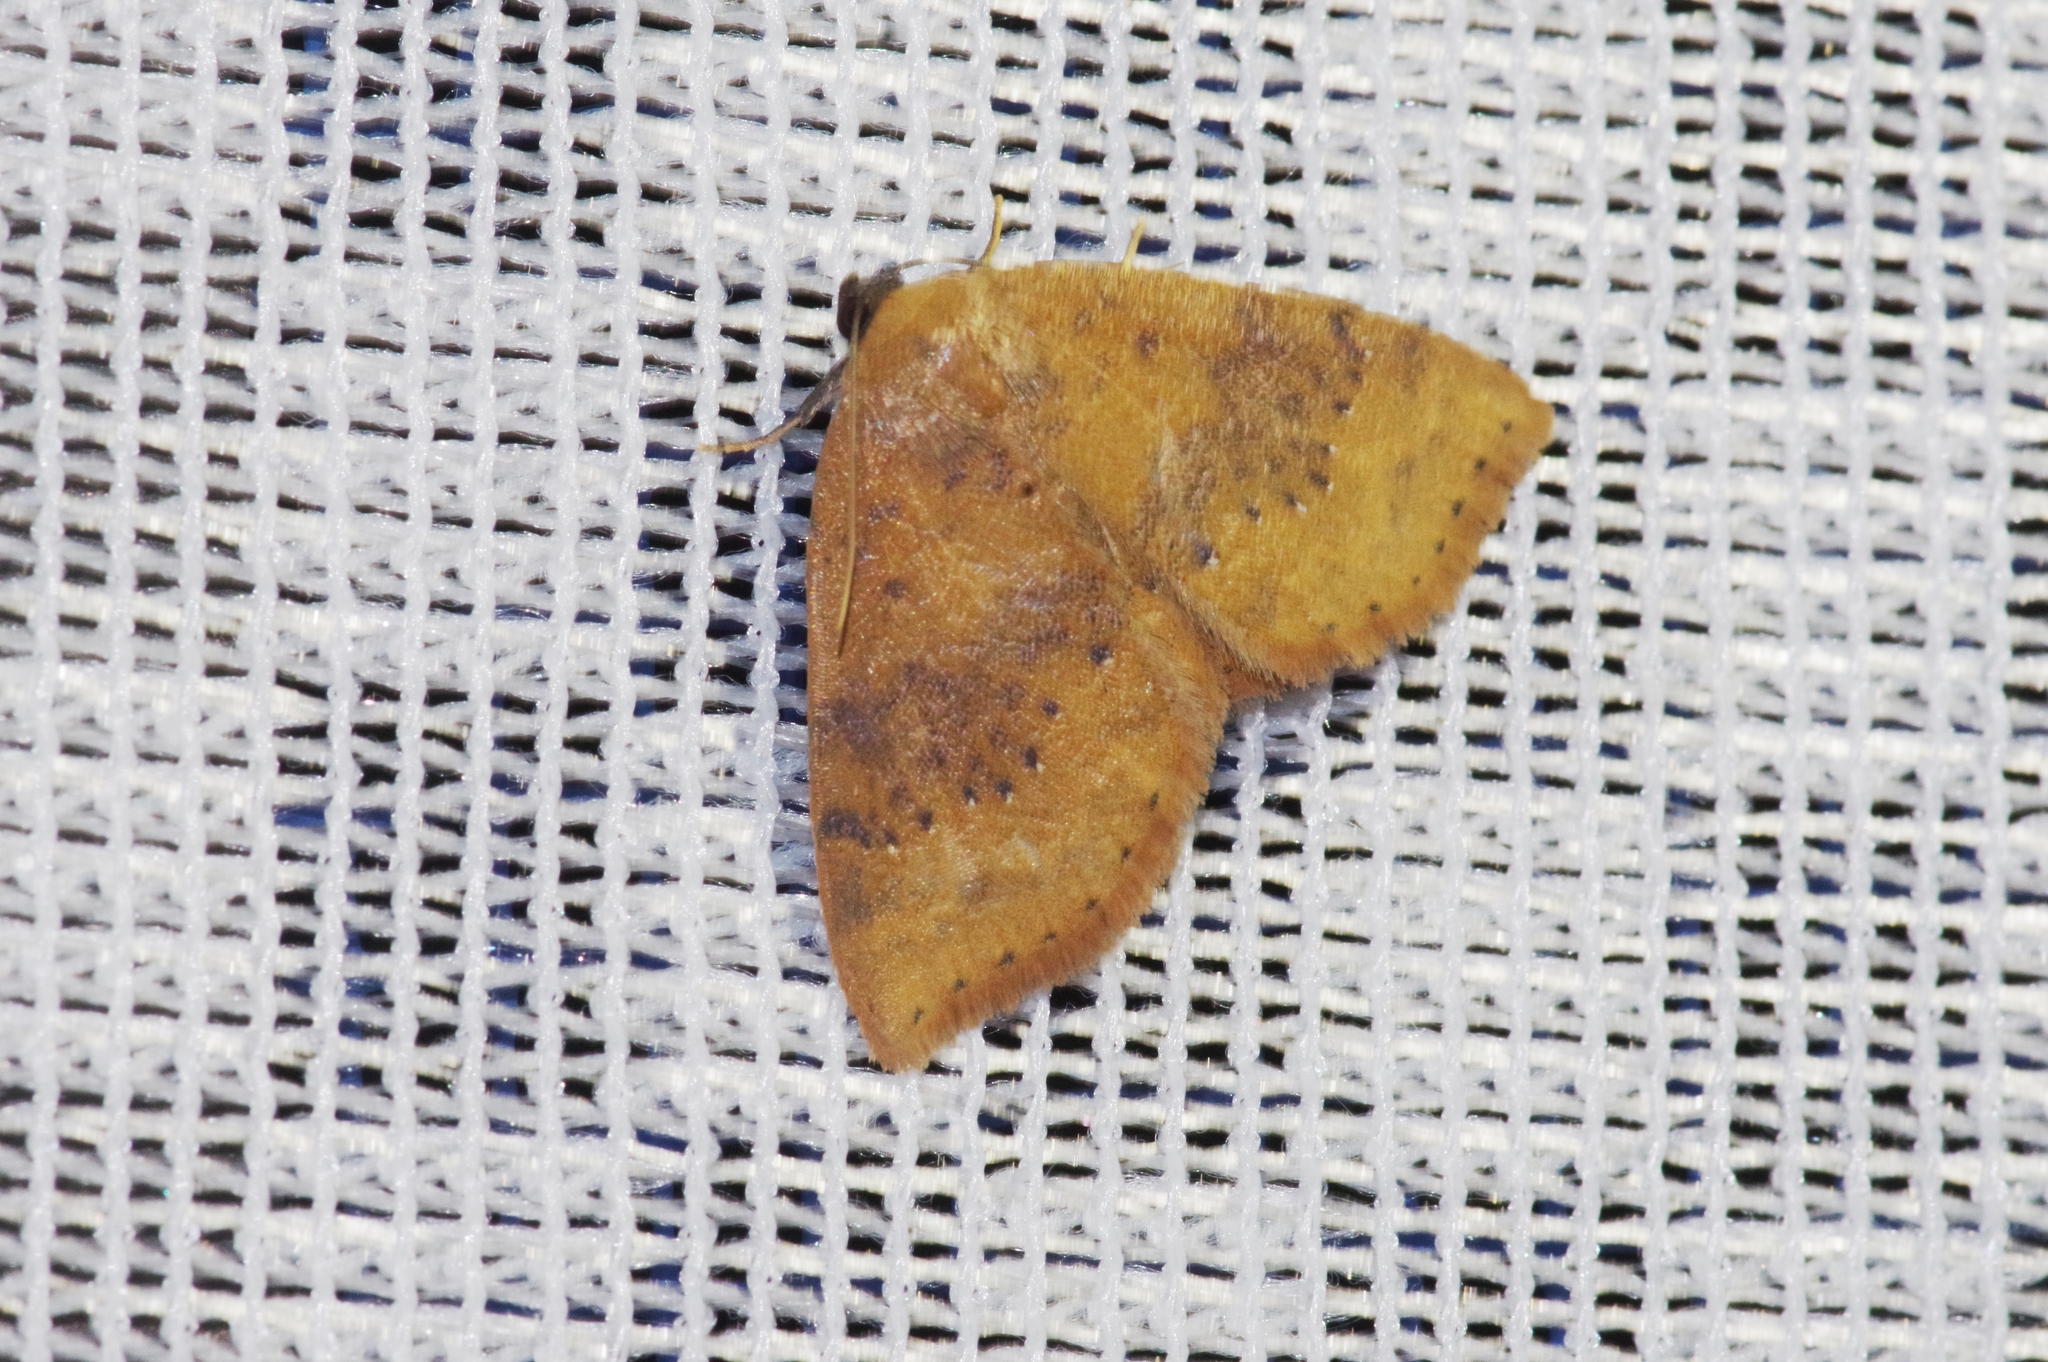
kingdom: Animalia
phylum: Arthropoda
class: Insecta
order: Lepidoptera
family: Noctuidae
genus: Oruza
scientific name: Oruza brunnea
